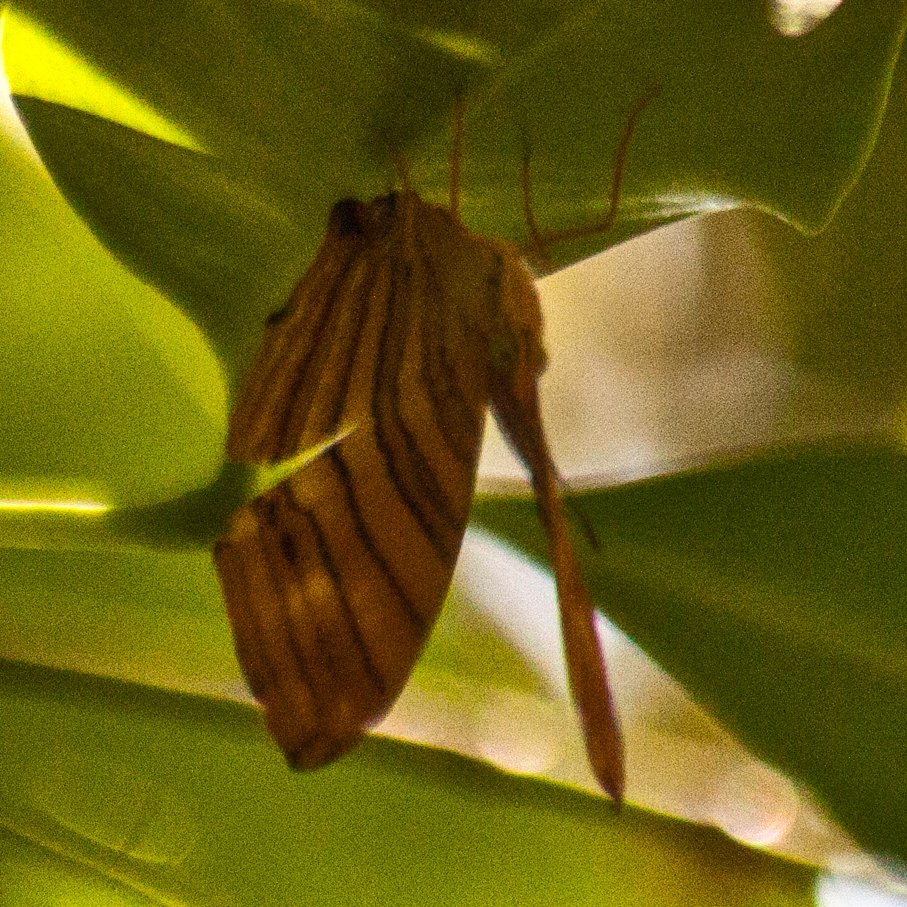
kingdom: Animalia
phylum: Arthropoda
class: Insecta
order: Lepidoptera
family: Nymphalidae
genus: Chersonesia
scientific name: Chersonesia risa
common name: Common maplet
